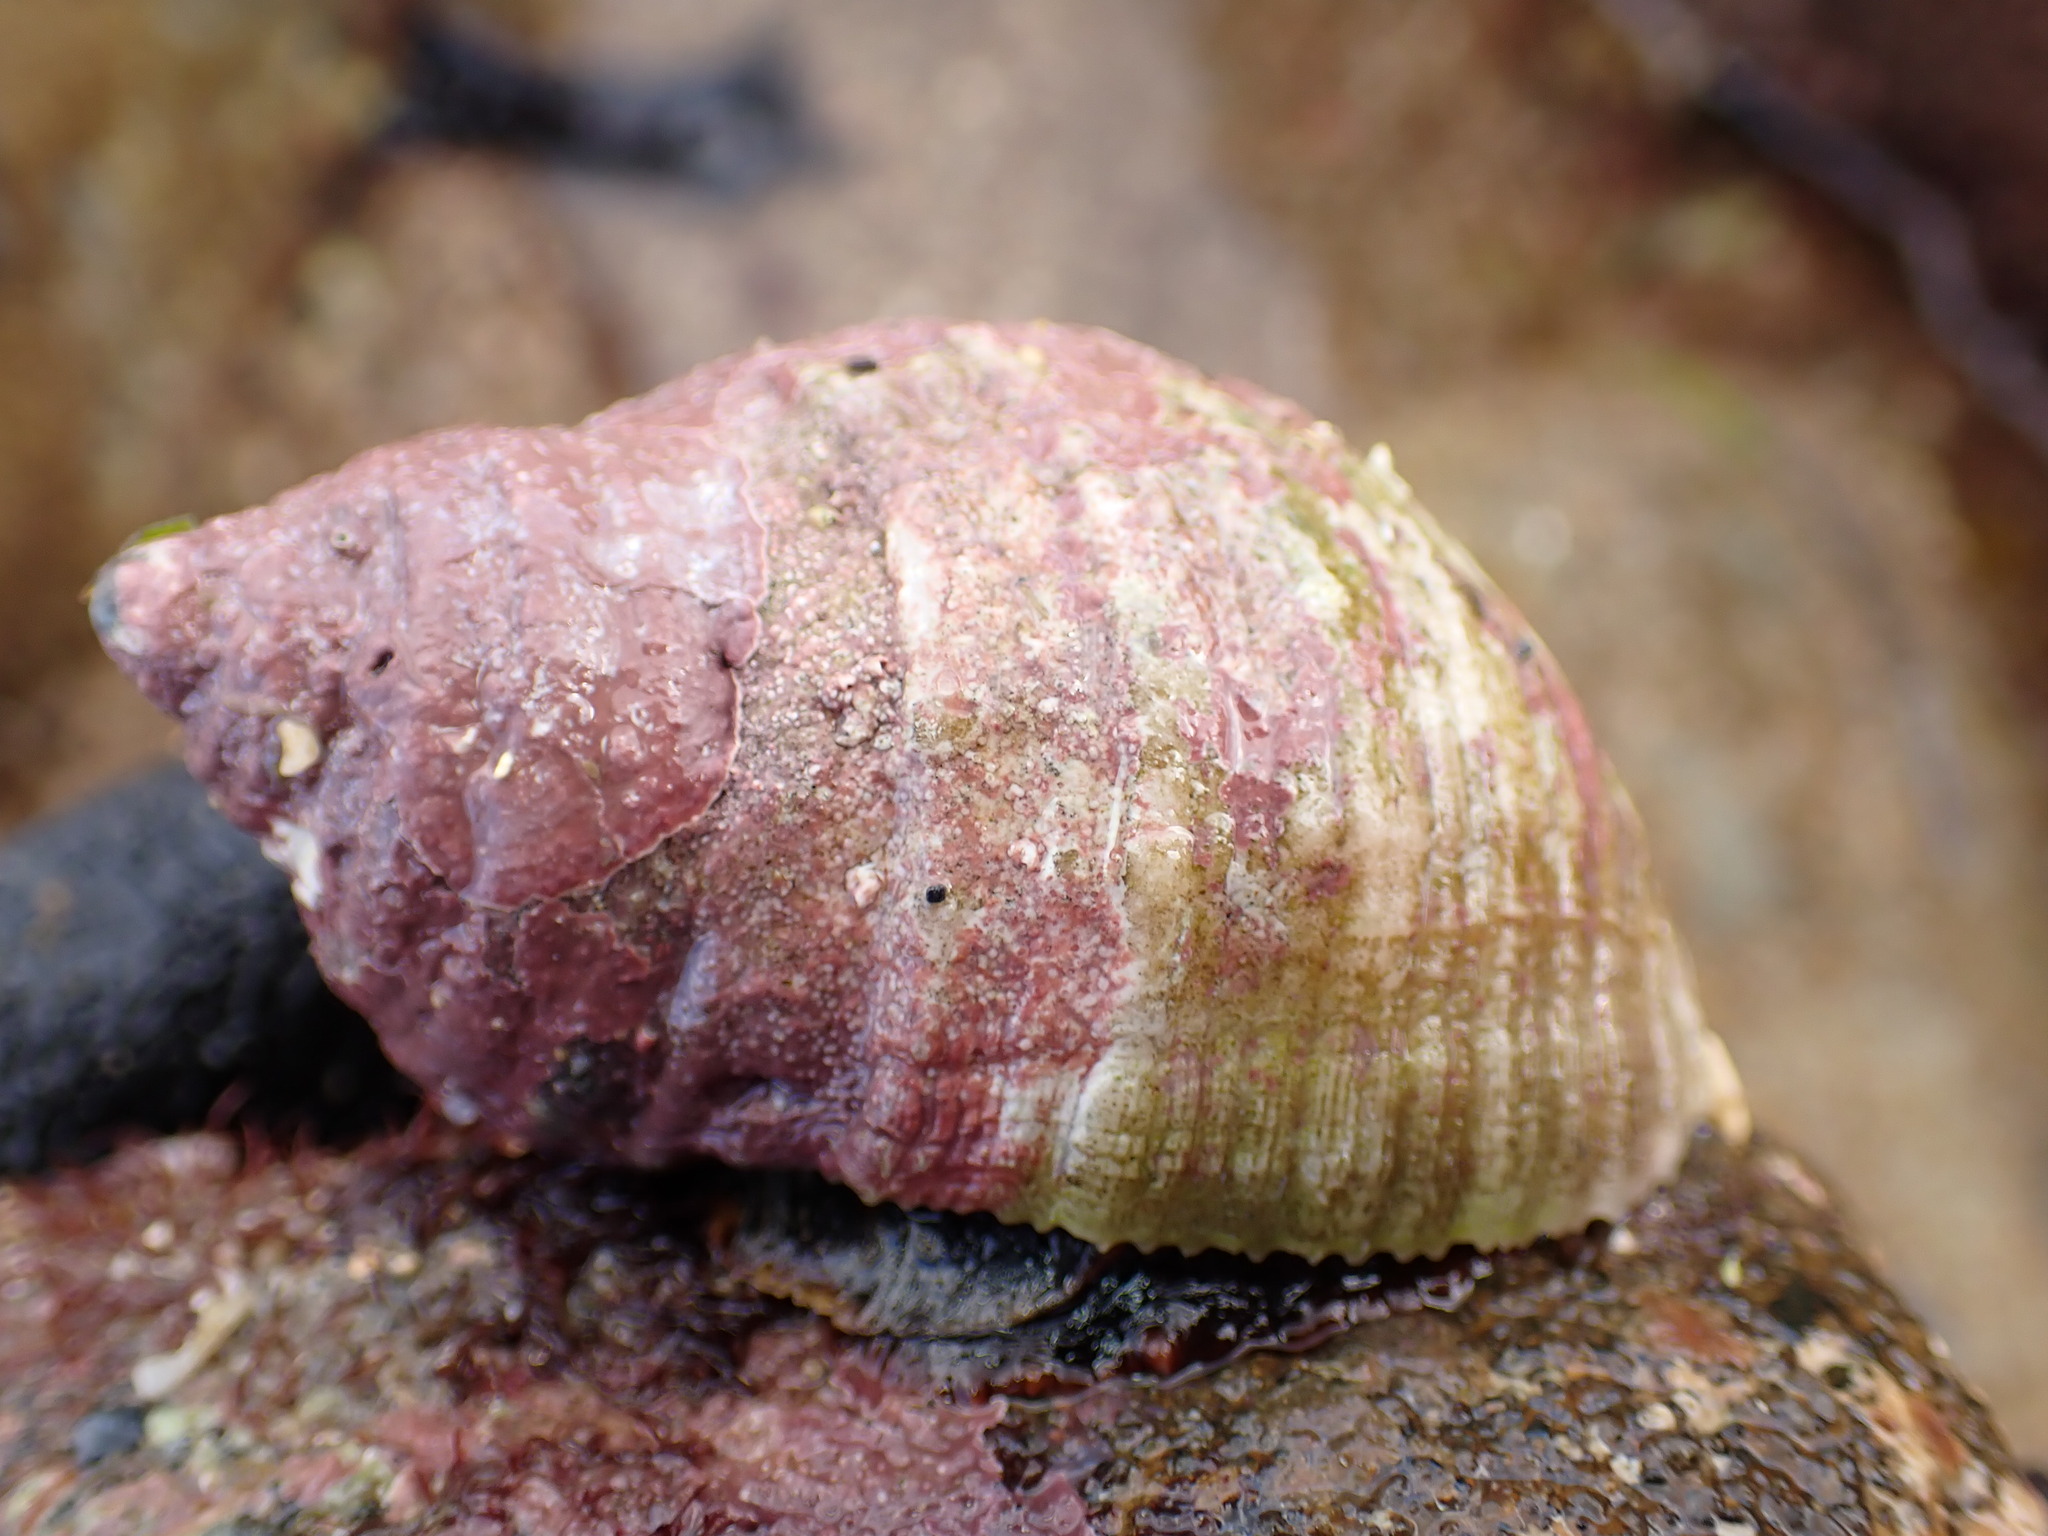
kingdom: Animalia
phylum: Mollusca
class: Gastropoda
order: Neogastropoda
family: Muricidae
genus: Dicathais
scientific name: Dicathais orbita
